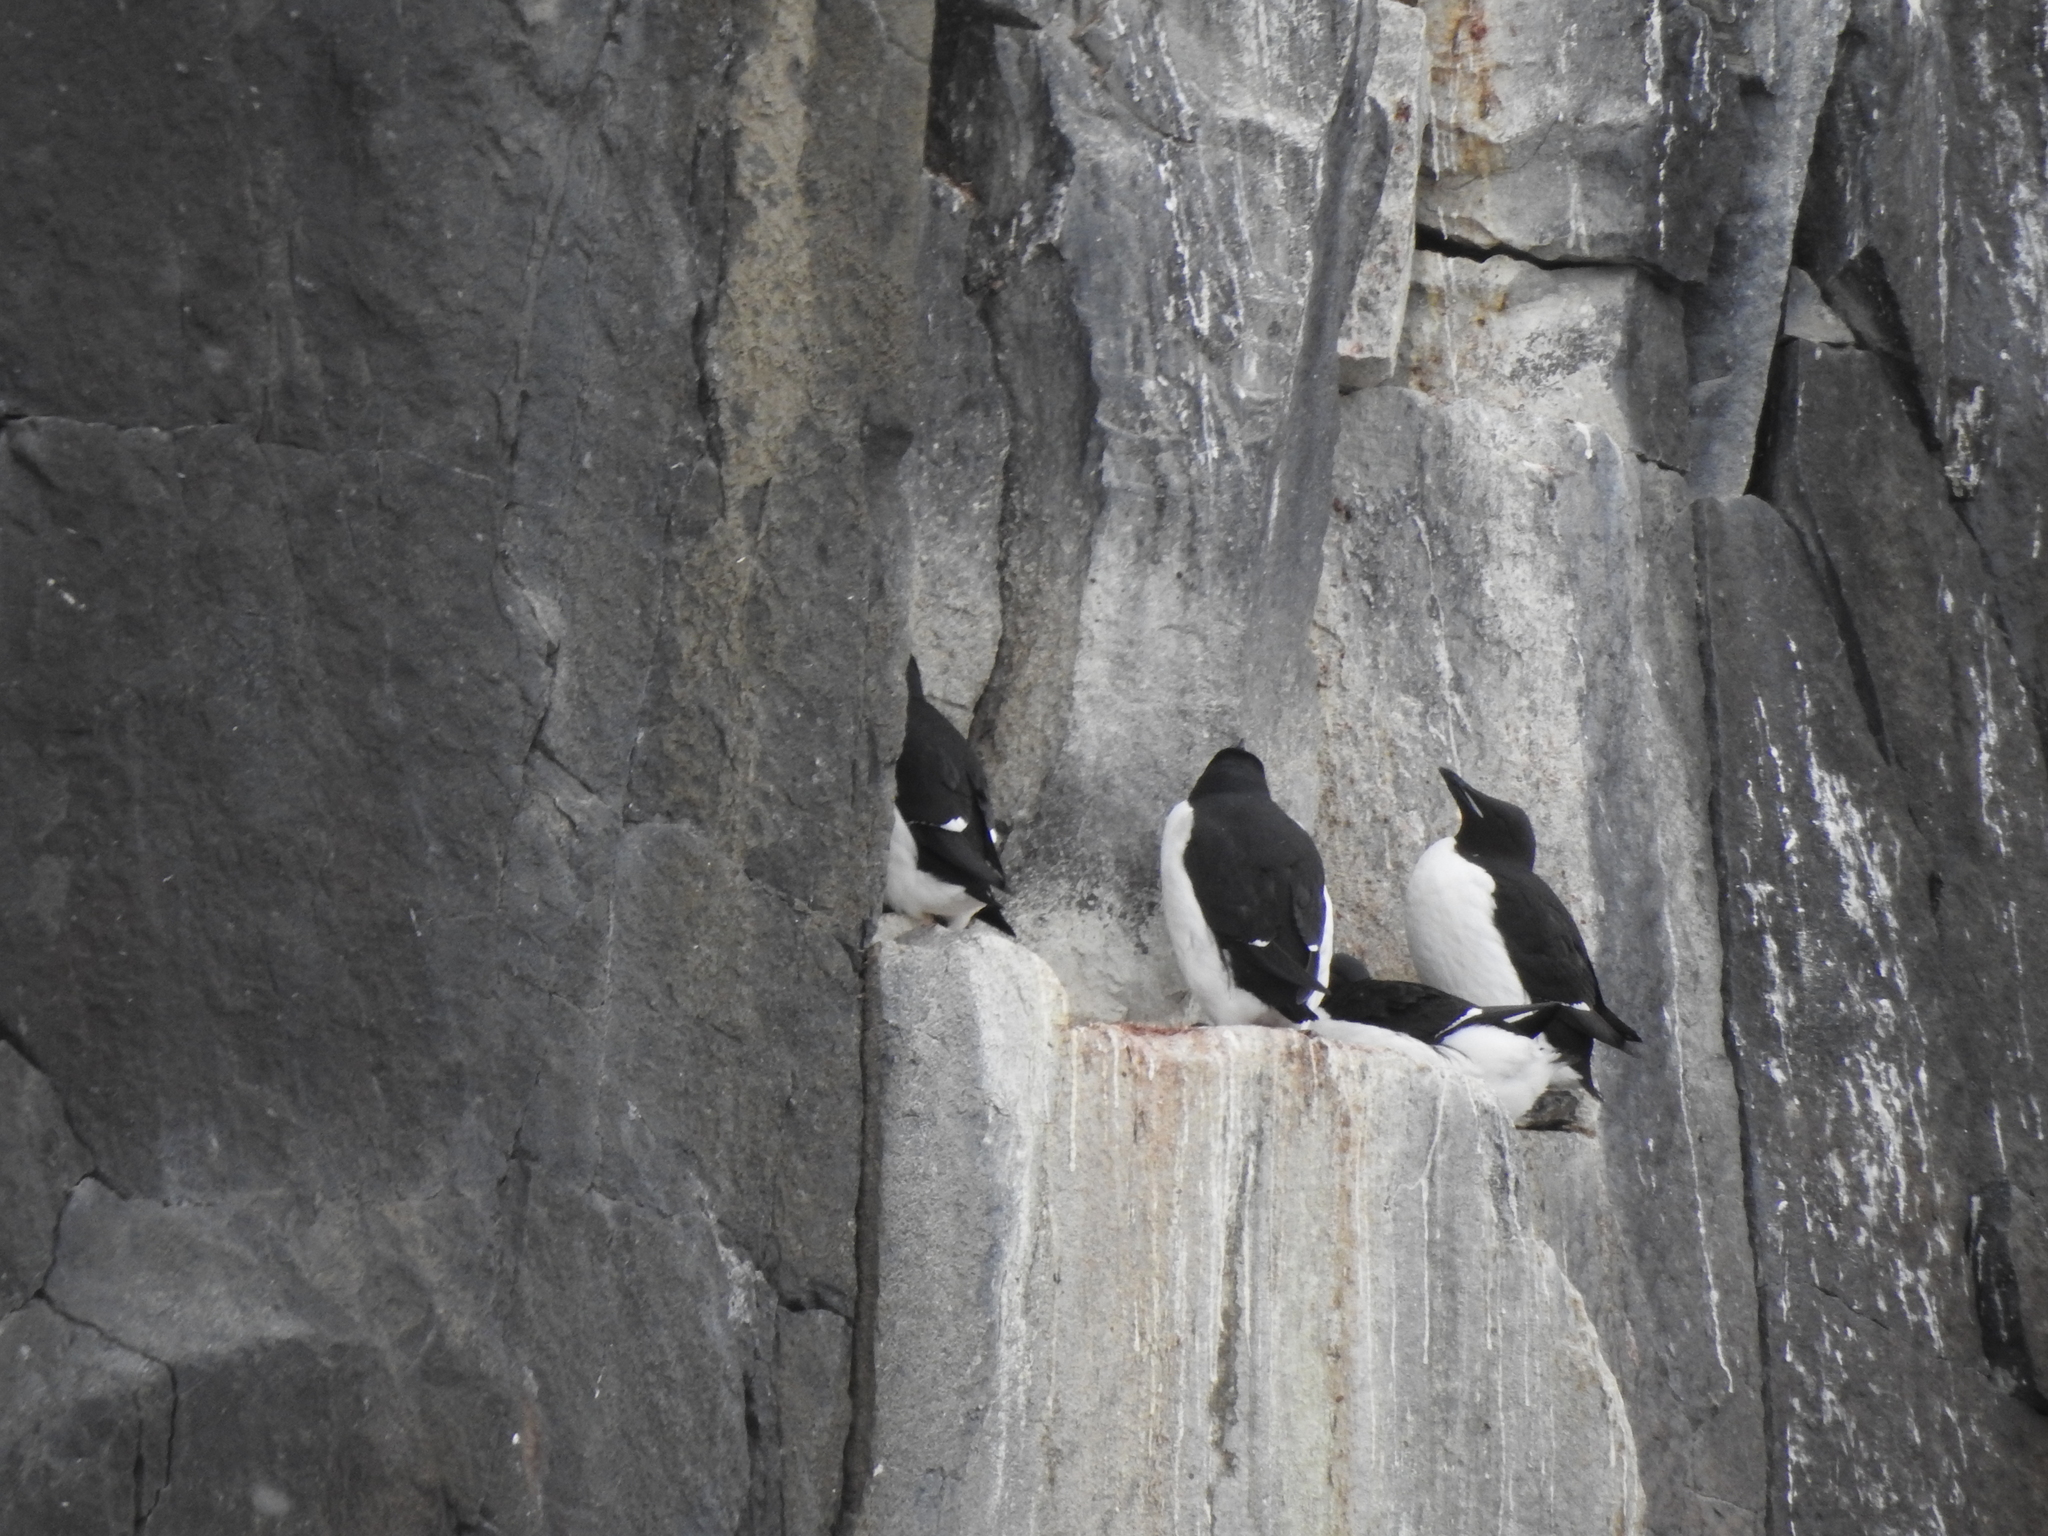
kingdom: Animalia
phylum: Chordata
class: Aves
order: Charadriiformes
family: Alcidae
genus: Uria
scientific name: Uria lomvia
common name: Thick-billed murre
